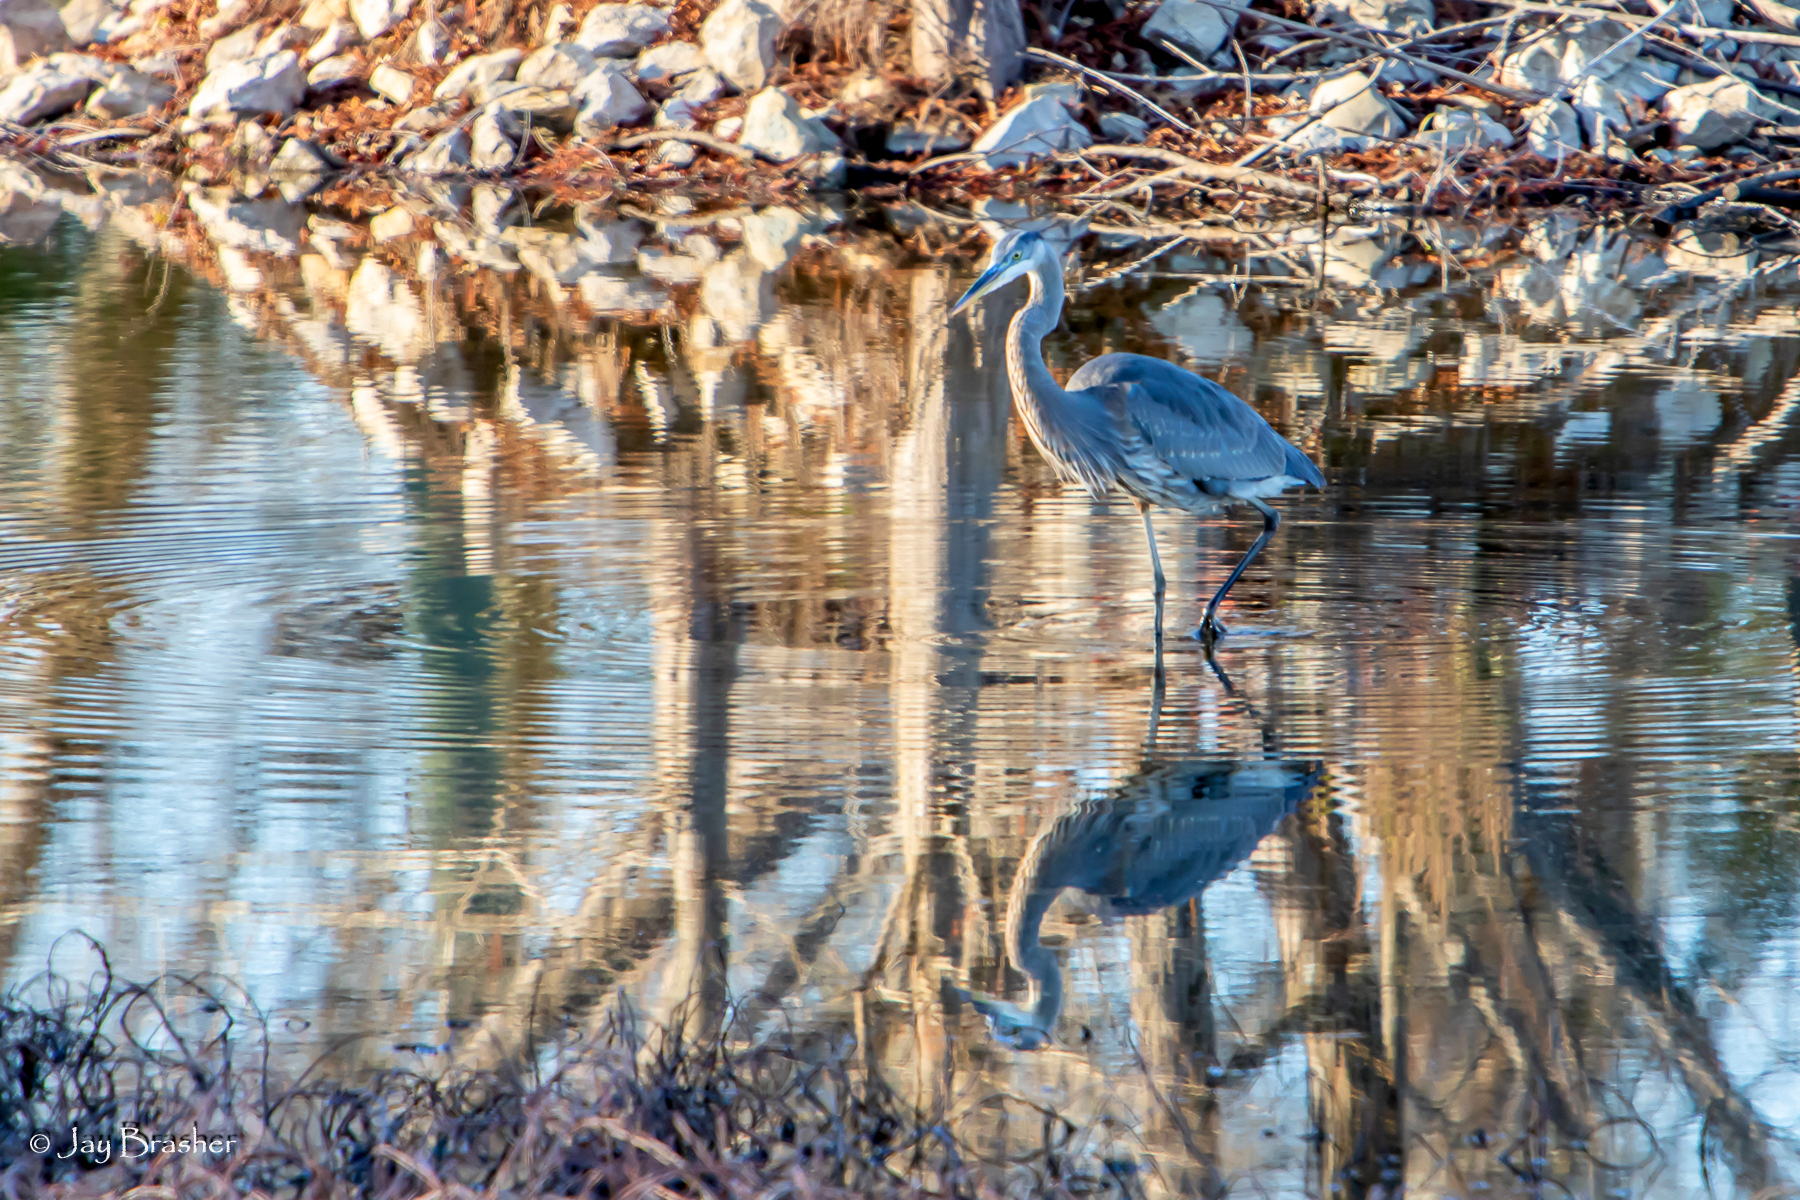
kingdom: Animalia
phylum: Chordata
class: Aves
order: Pelecaniformes
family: Ardeidae
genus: Ardea
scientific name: Ardea herodias
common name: Great blue heron
